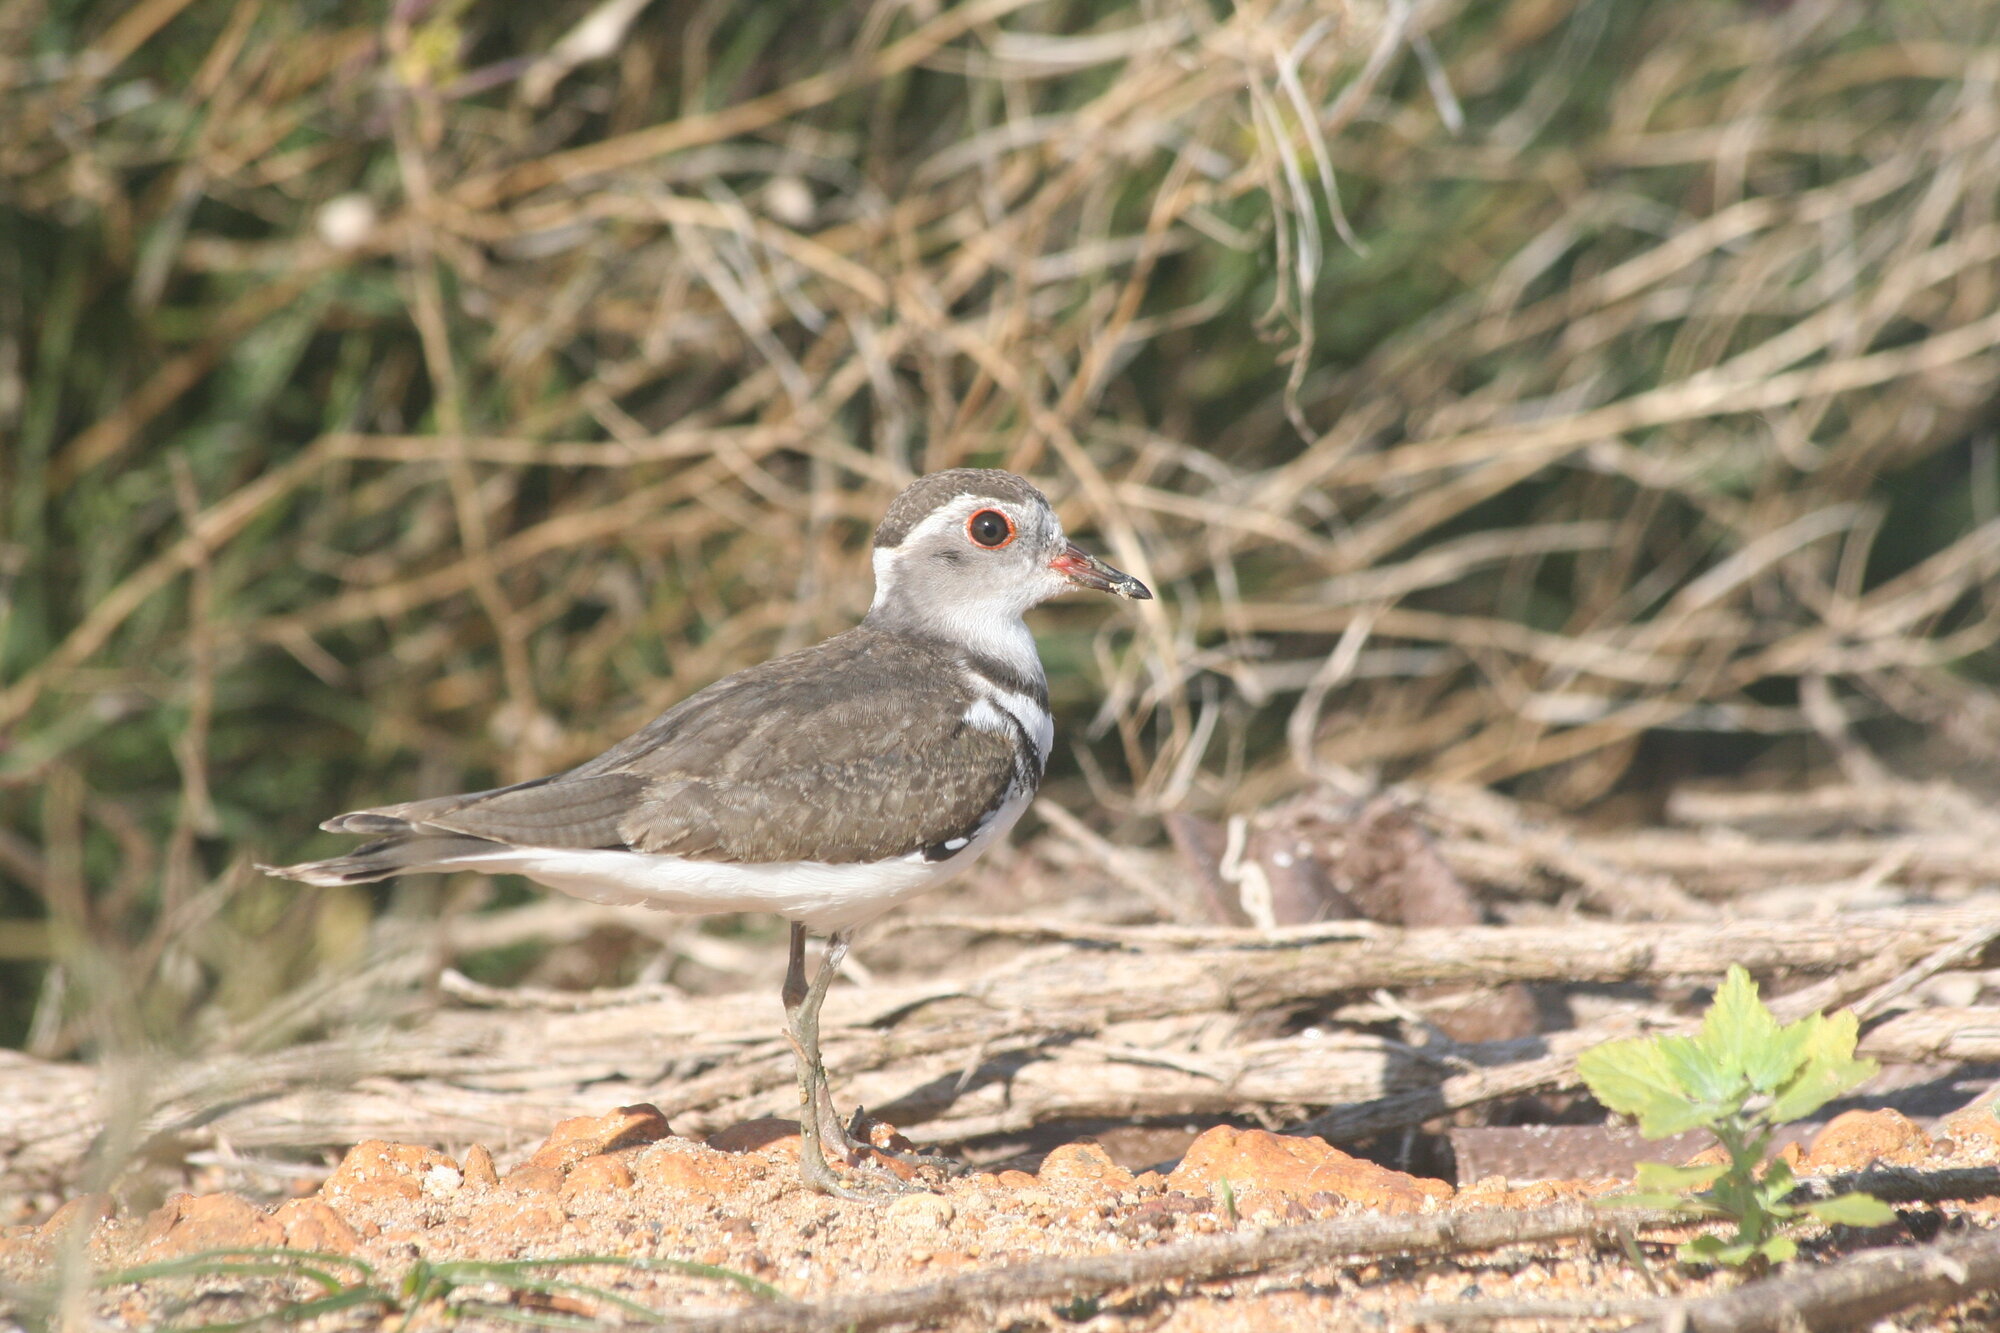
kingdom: Animalia
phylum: Chordata
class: Aves
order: Charadriiformes
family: Charadriidae
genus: Charadrius
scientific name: Charadrius tricollaris
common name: Three-banded plover
